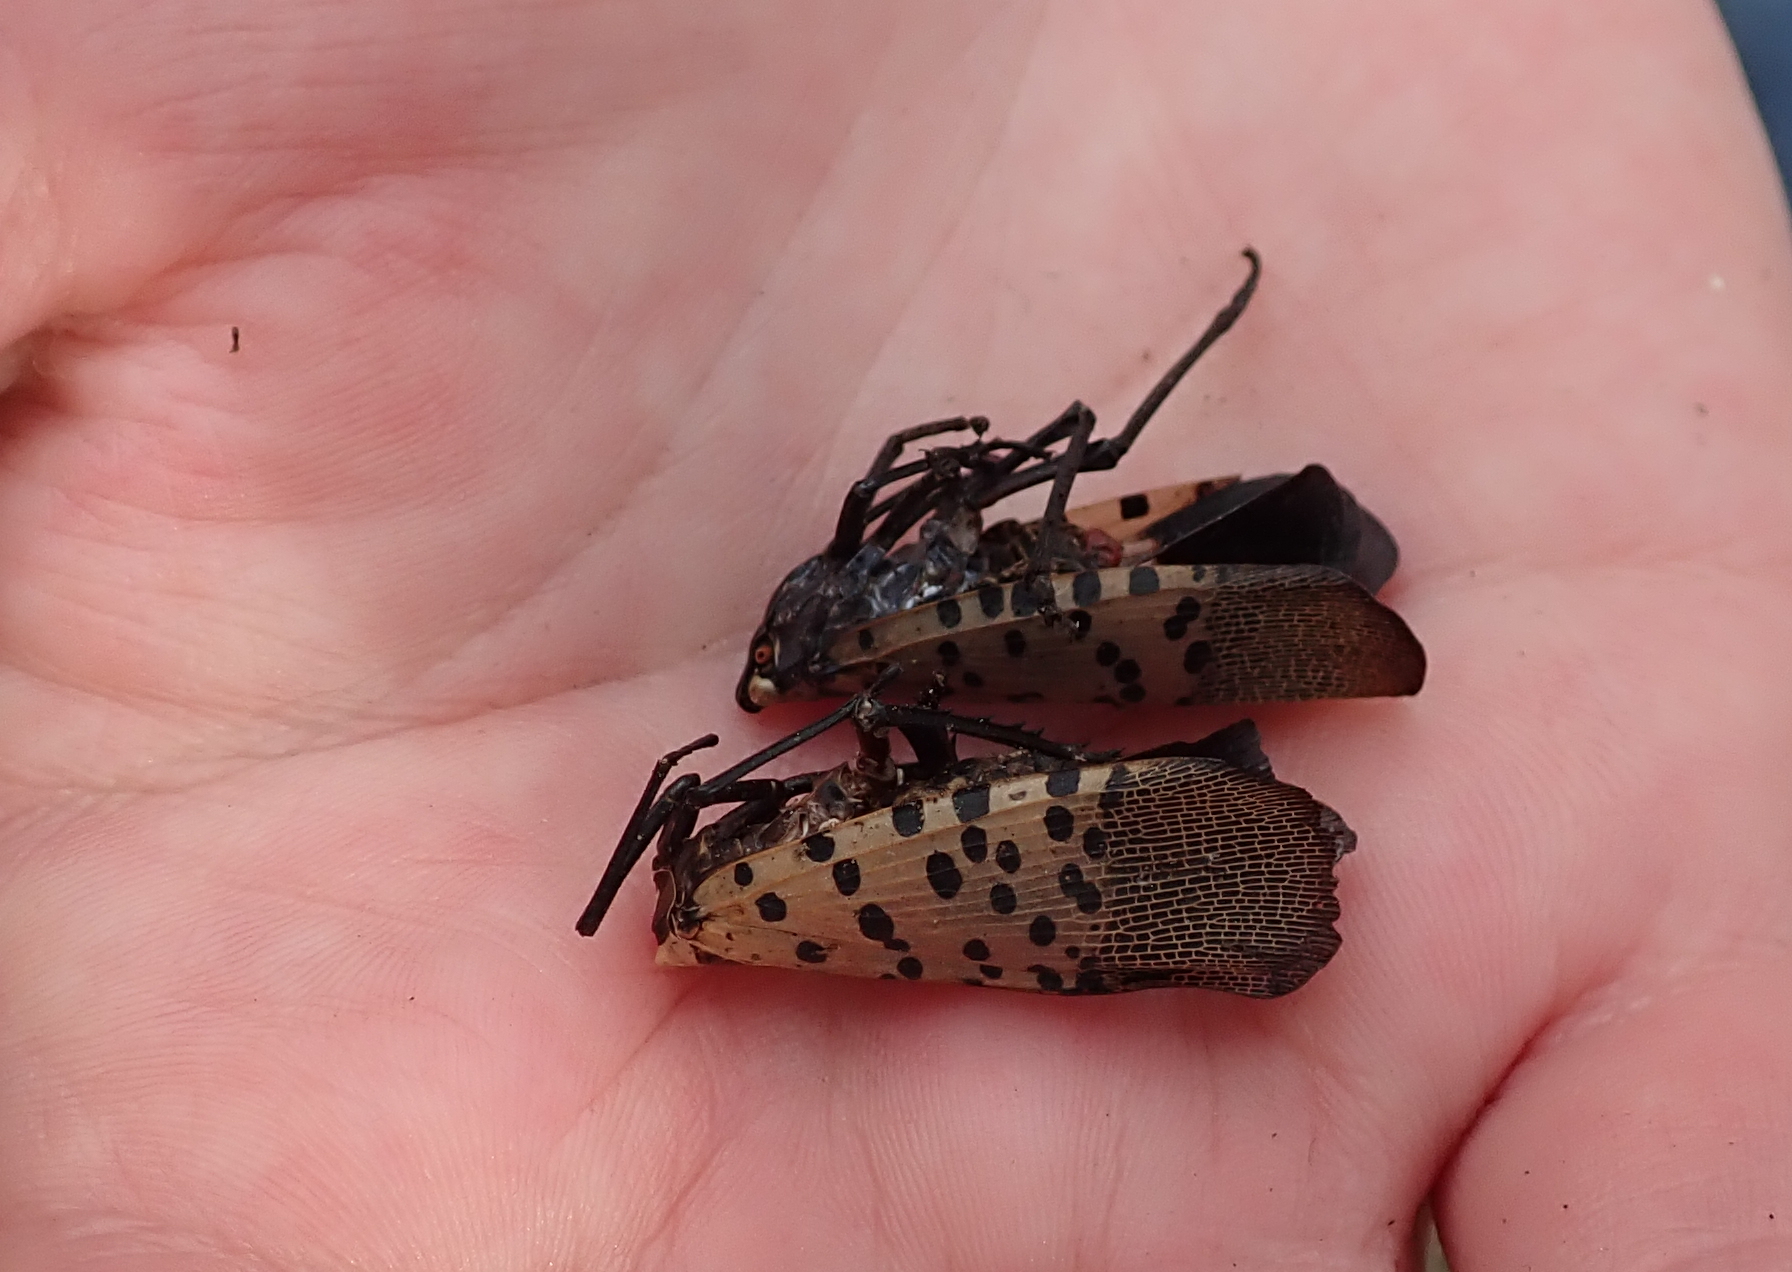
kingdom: Animalia
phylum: Arthropoda
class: Insecta
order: Hemiptera
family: Fulgoridae
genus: Lycorma
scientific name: Lycorma delicatula
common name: Spotted lanternfly
